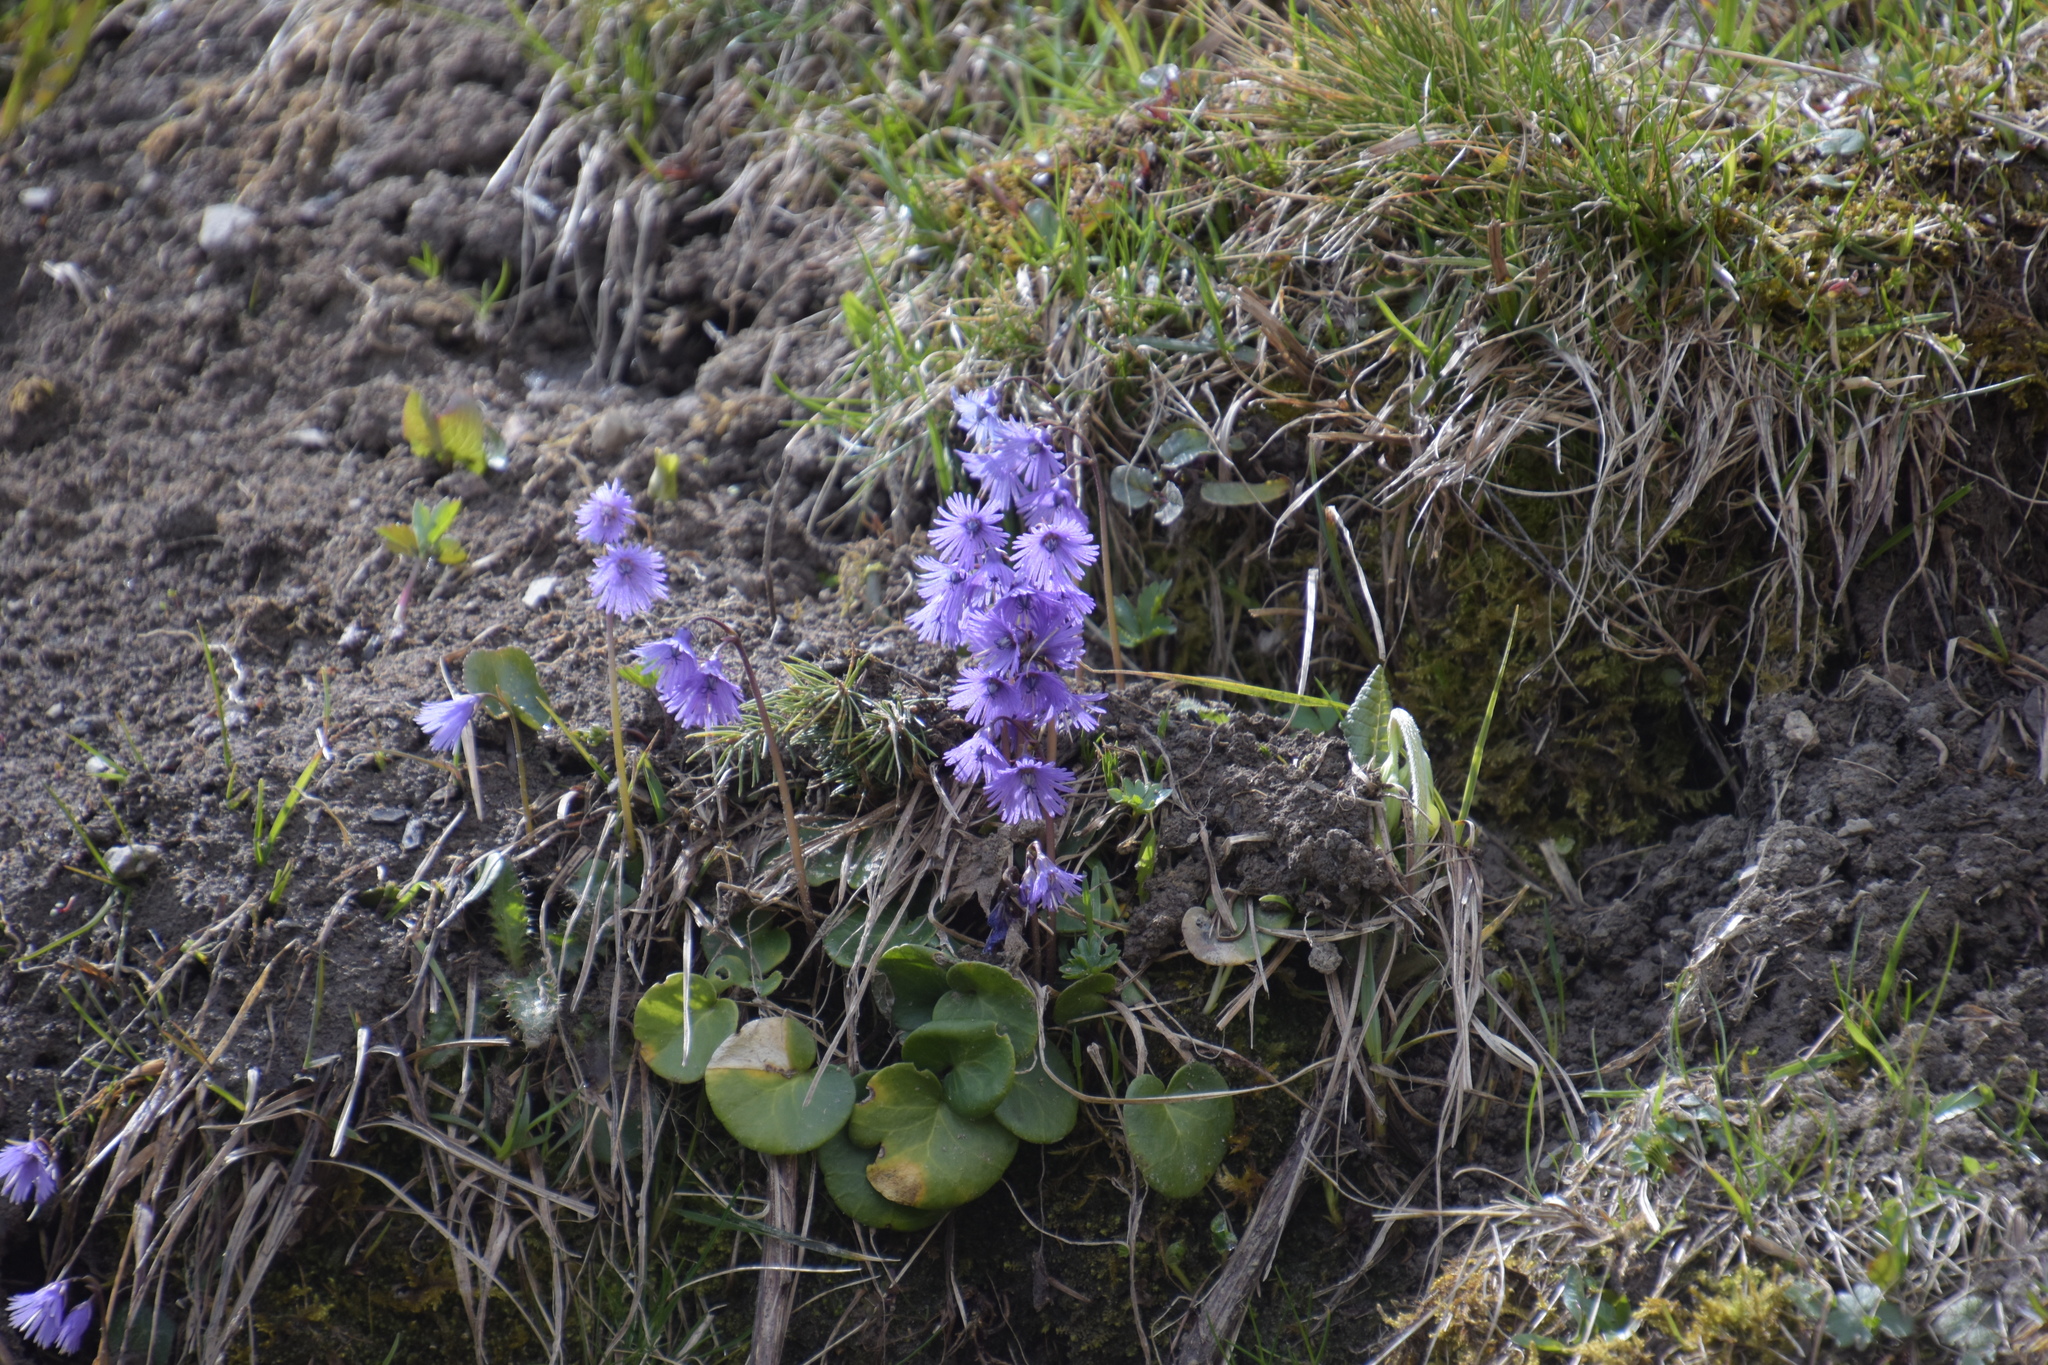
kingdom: Plantae
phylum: Tracheophyta
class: Magnoliopsida
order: Ericales
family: Primulaceae
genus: Soldanella
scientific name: Soldanella alpina
